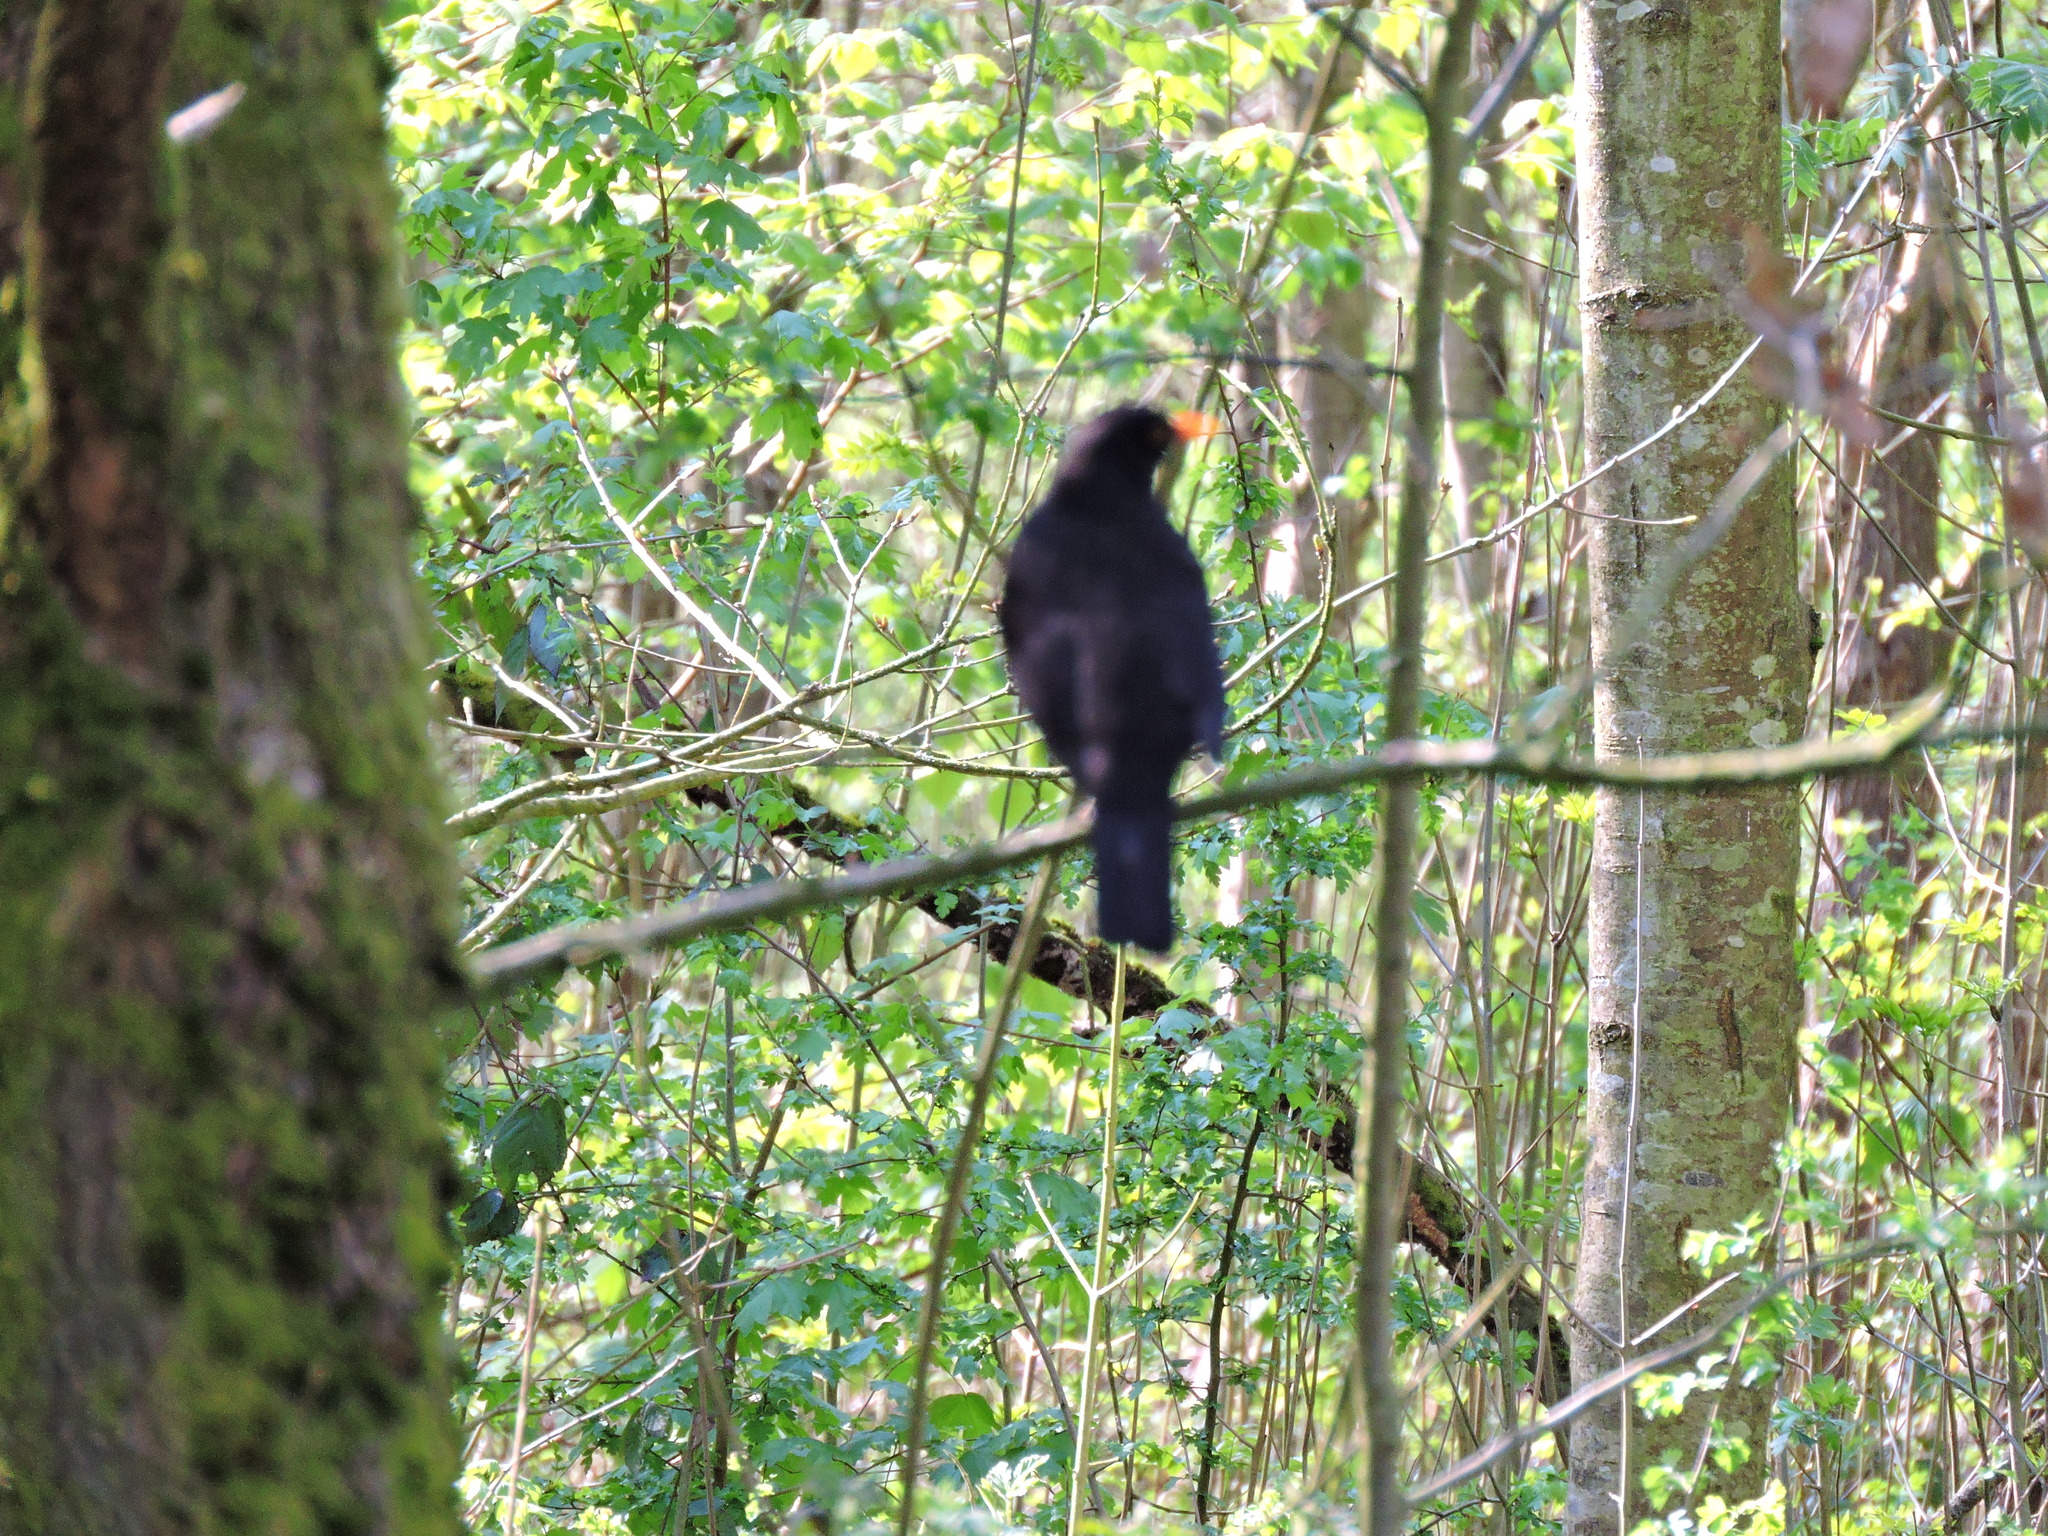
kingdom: Animalia
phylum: Chordata
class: Aves
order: Passeriformes
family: Turdidae
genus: Turdus
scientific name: Turdus merula
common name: Common blackbird
